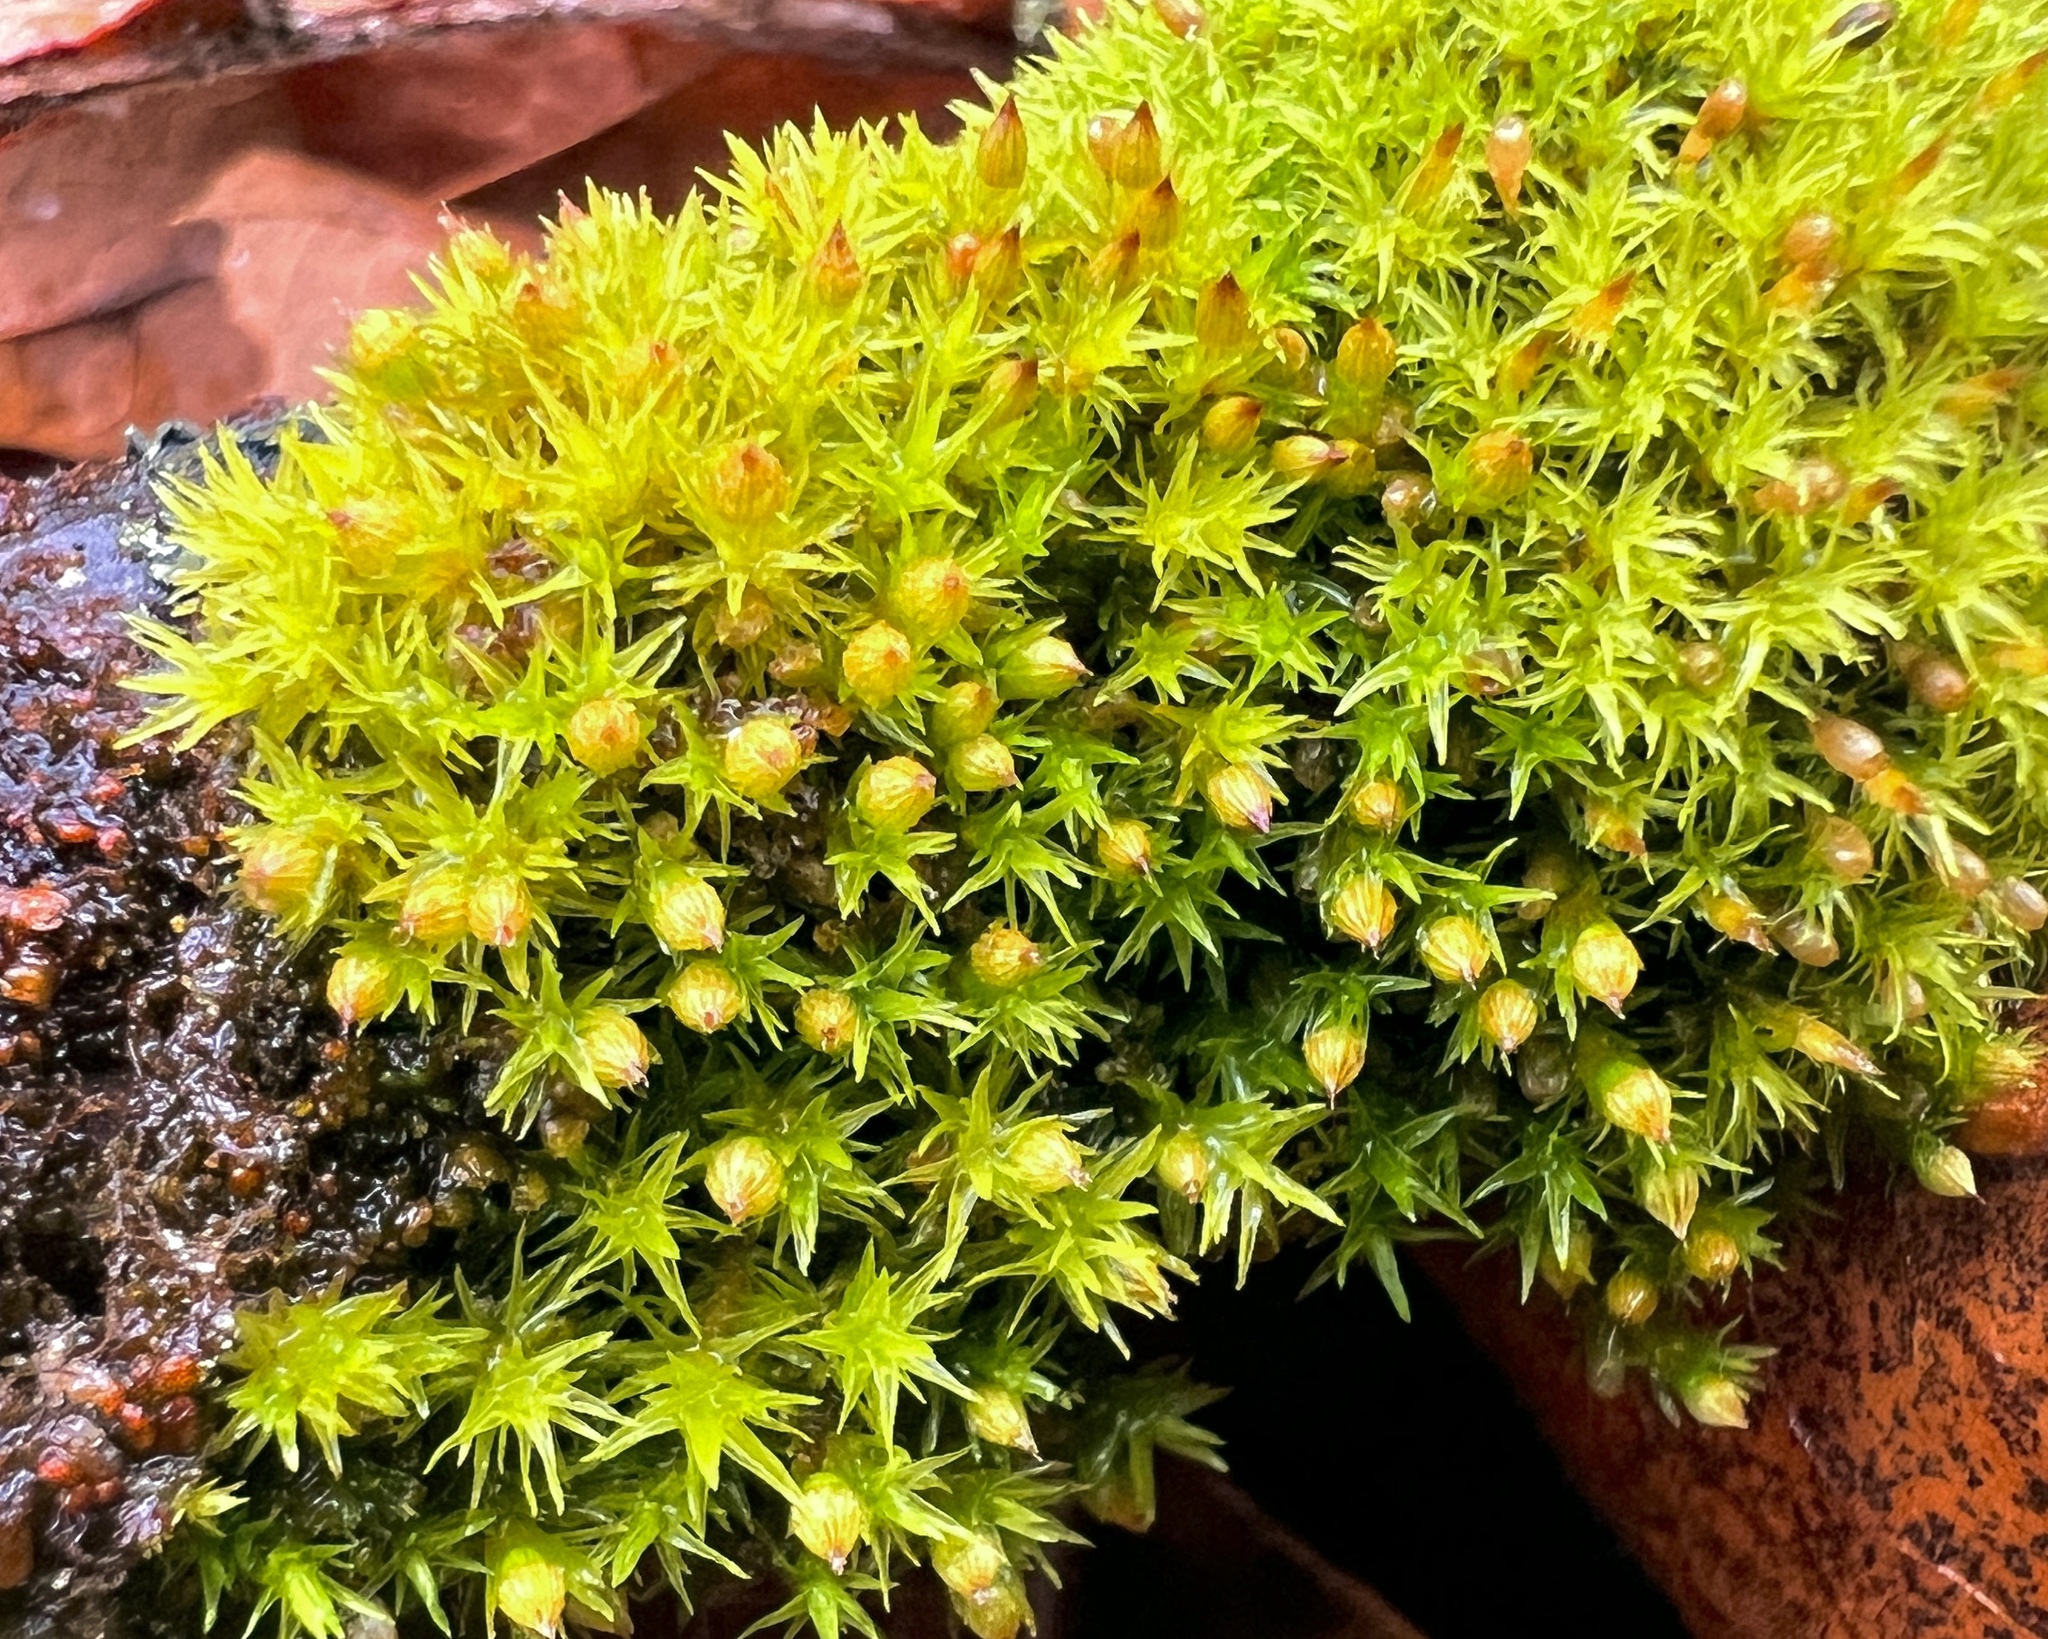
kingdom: Plantae
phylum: Bryophyta
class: Bryopsida
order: Orthotrichales
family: Orthotrichaceae
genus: Orthotrichum
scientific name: Orthotrichum stellatum
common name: Starlike bristle moss
